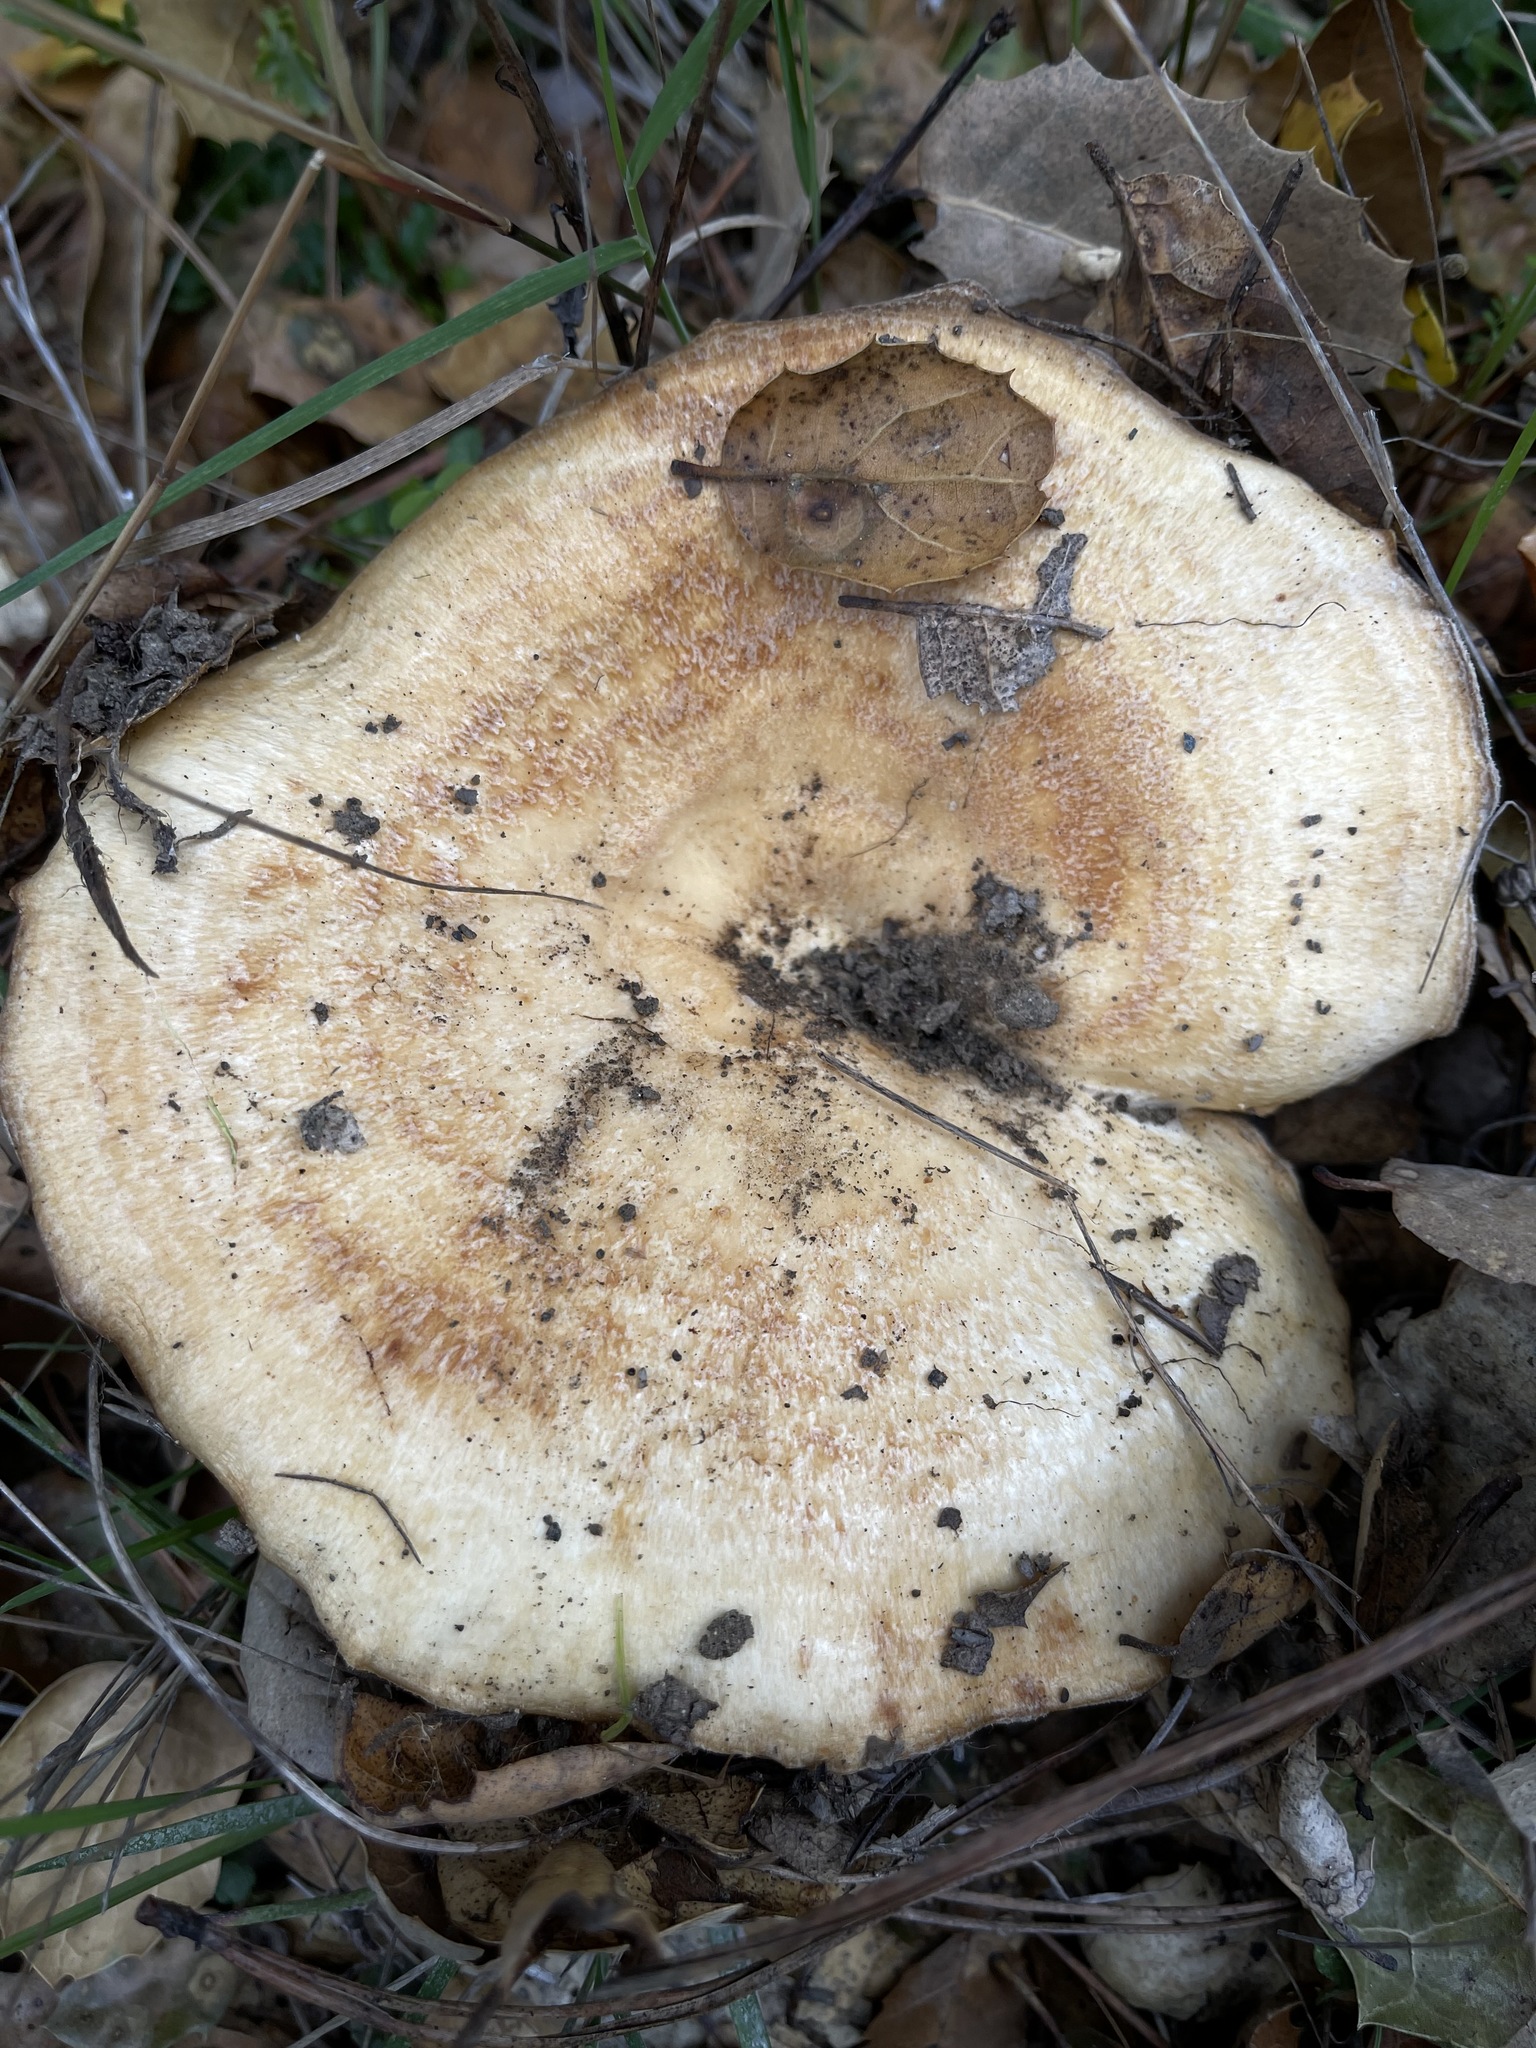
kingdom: Fungi
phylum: Basidiomycota
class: Agaricomycetes
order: Russulales
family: Russulaceae
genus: Lactarius
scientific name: Lactarius alnicola
